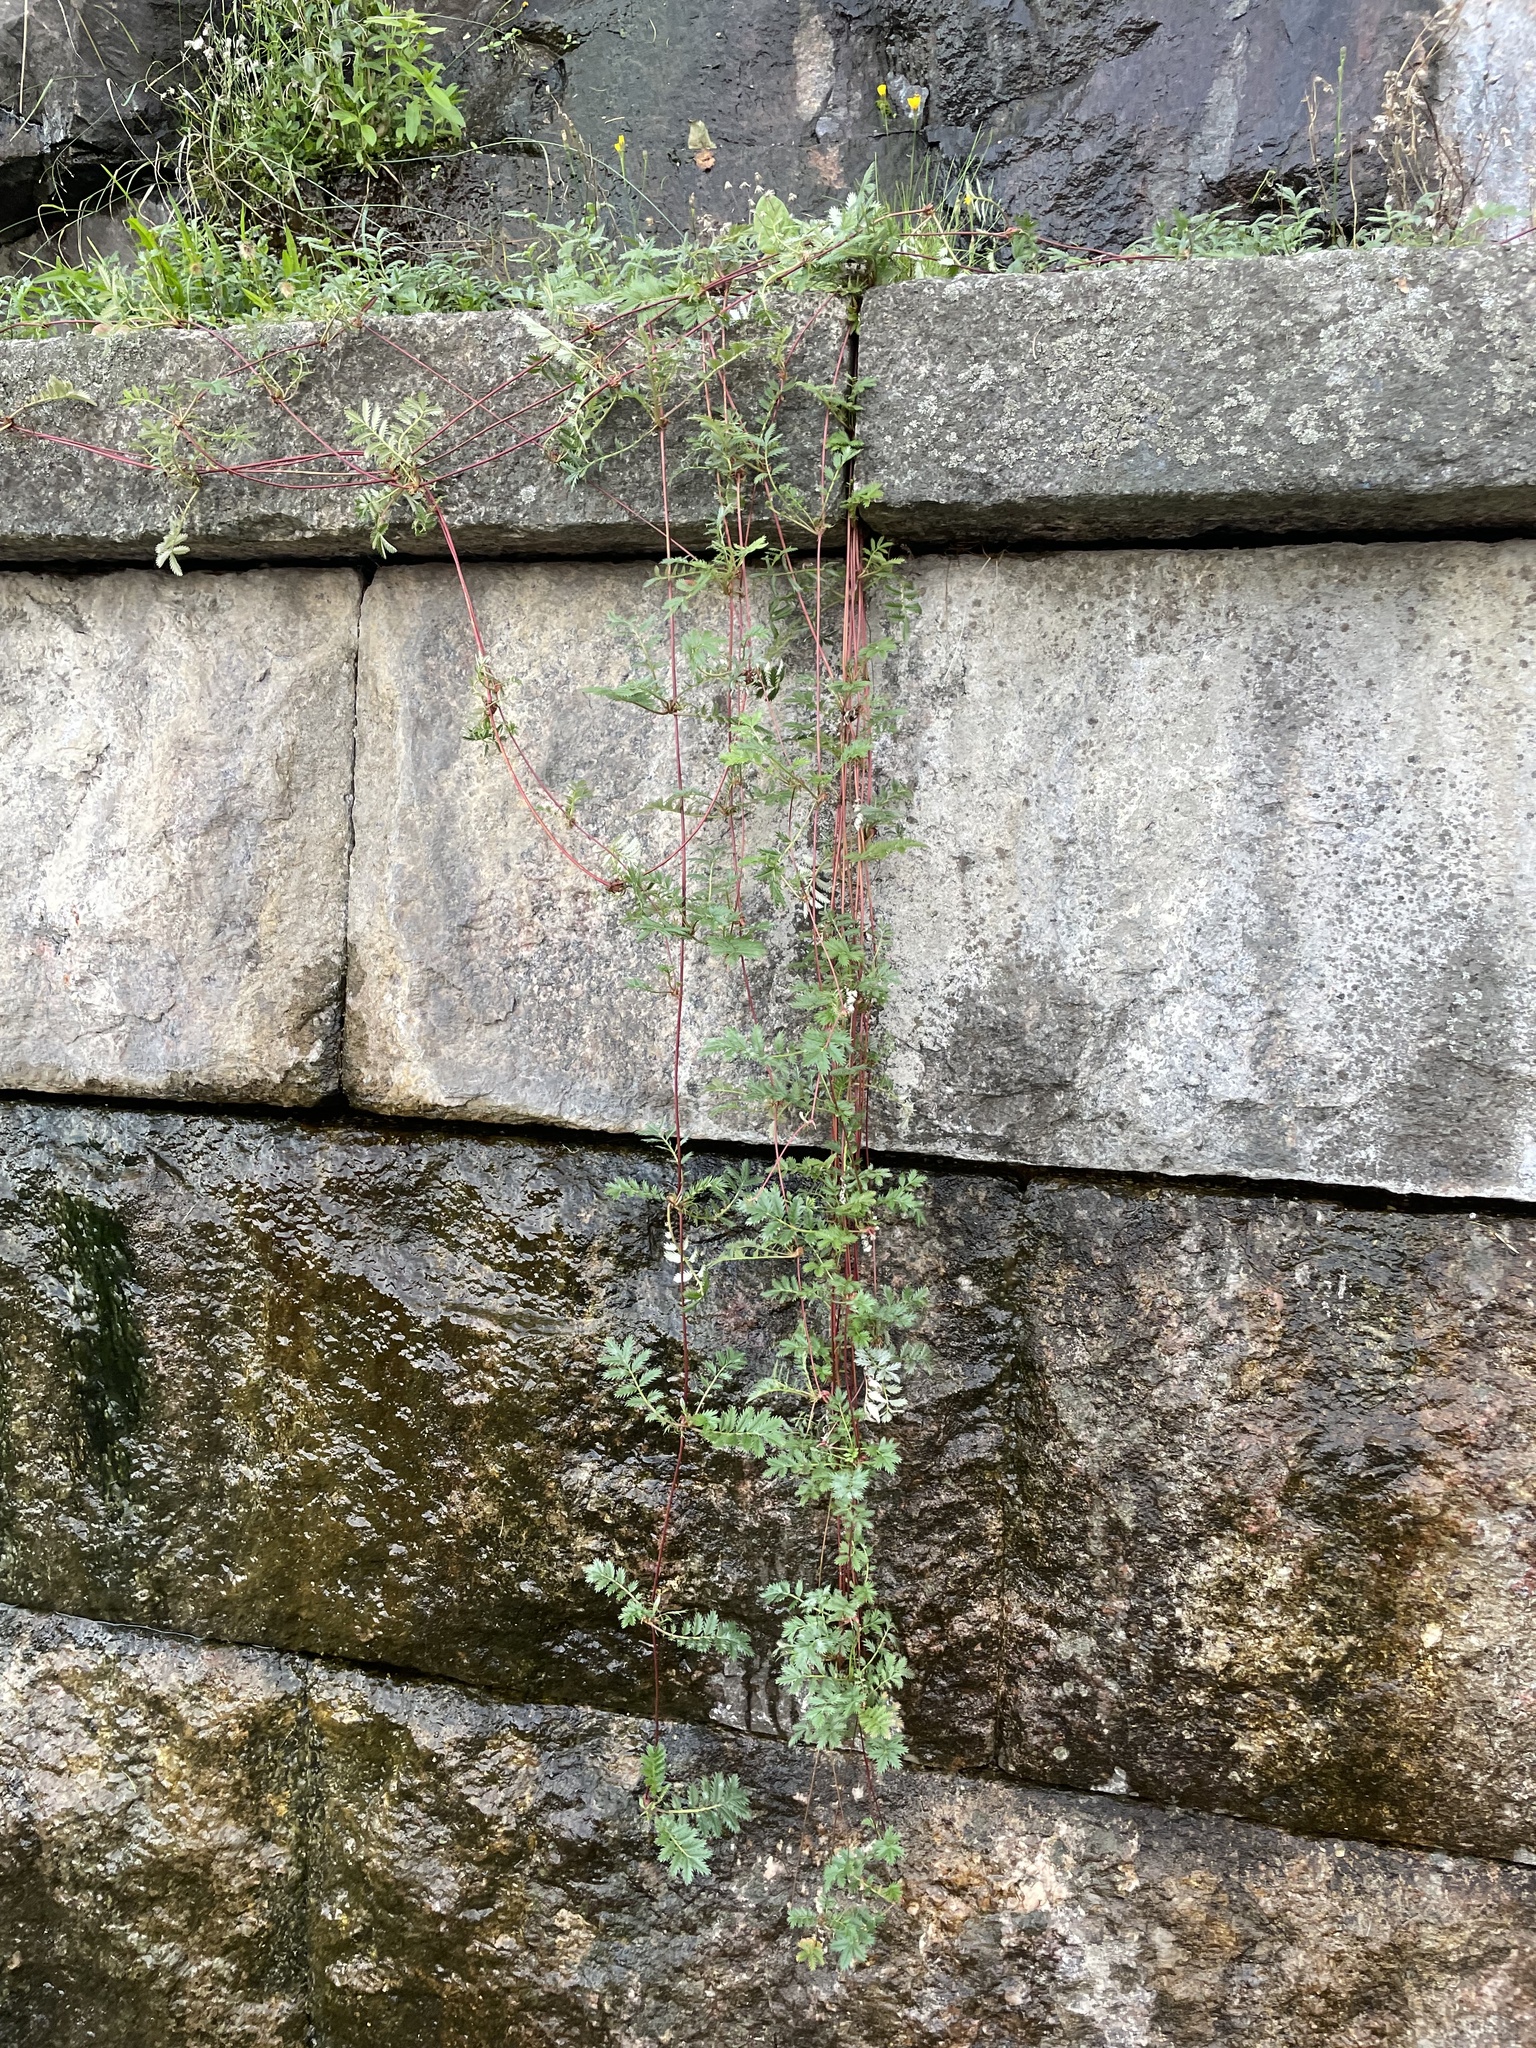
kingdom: Plantae
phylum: Tracheophyta
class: Magnoliopsida
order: Rosales
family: Rosaceae
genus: Argentina
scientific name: Argentina anserina
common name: Common silverweed
